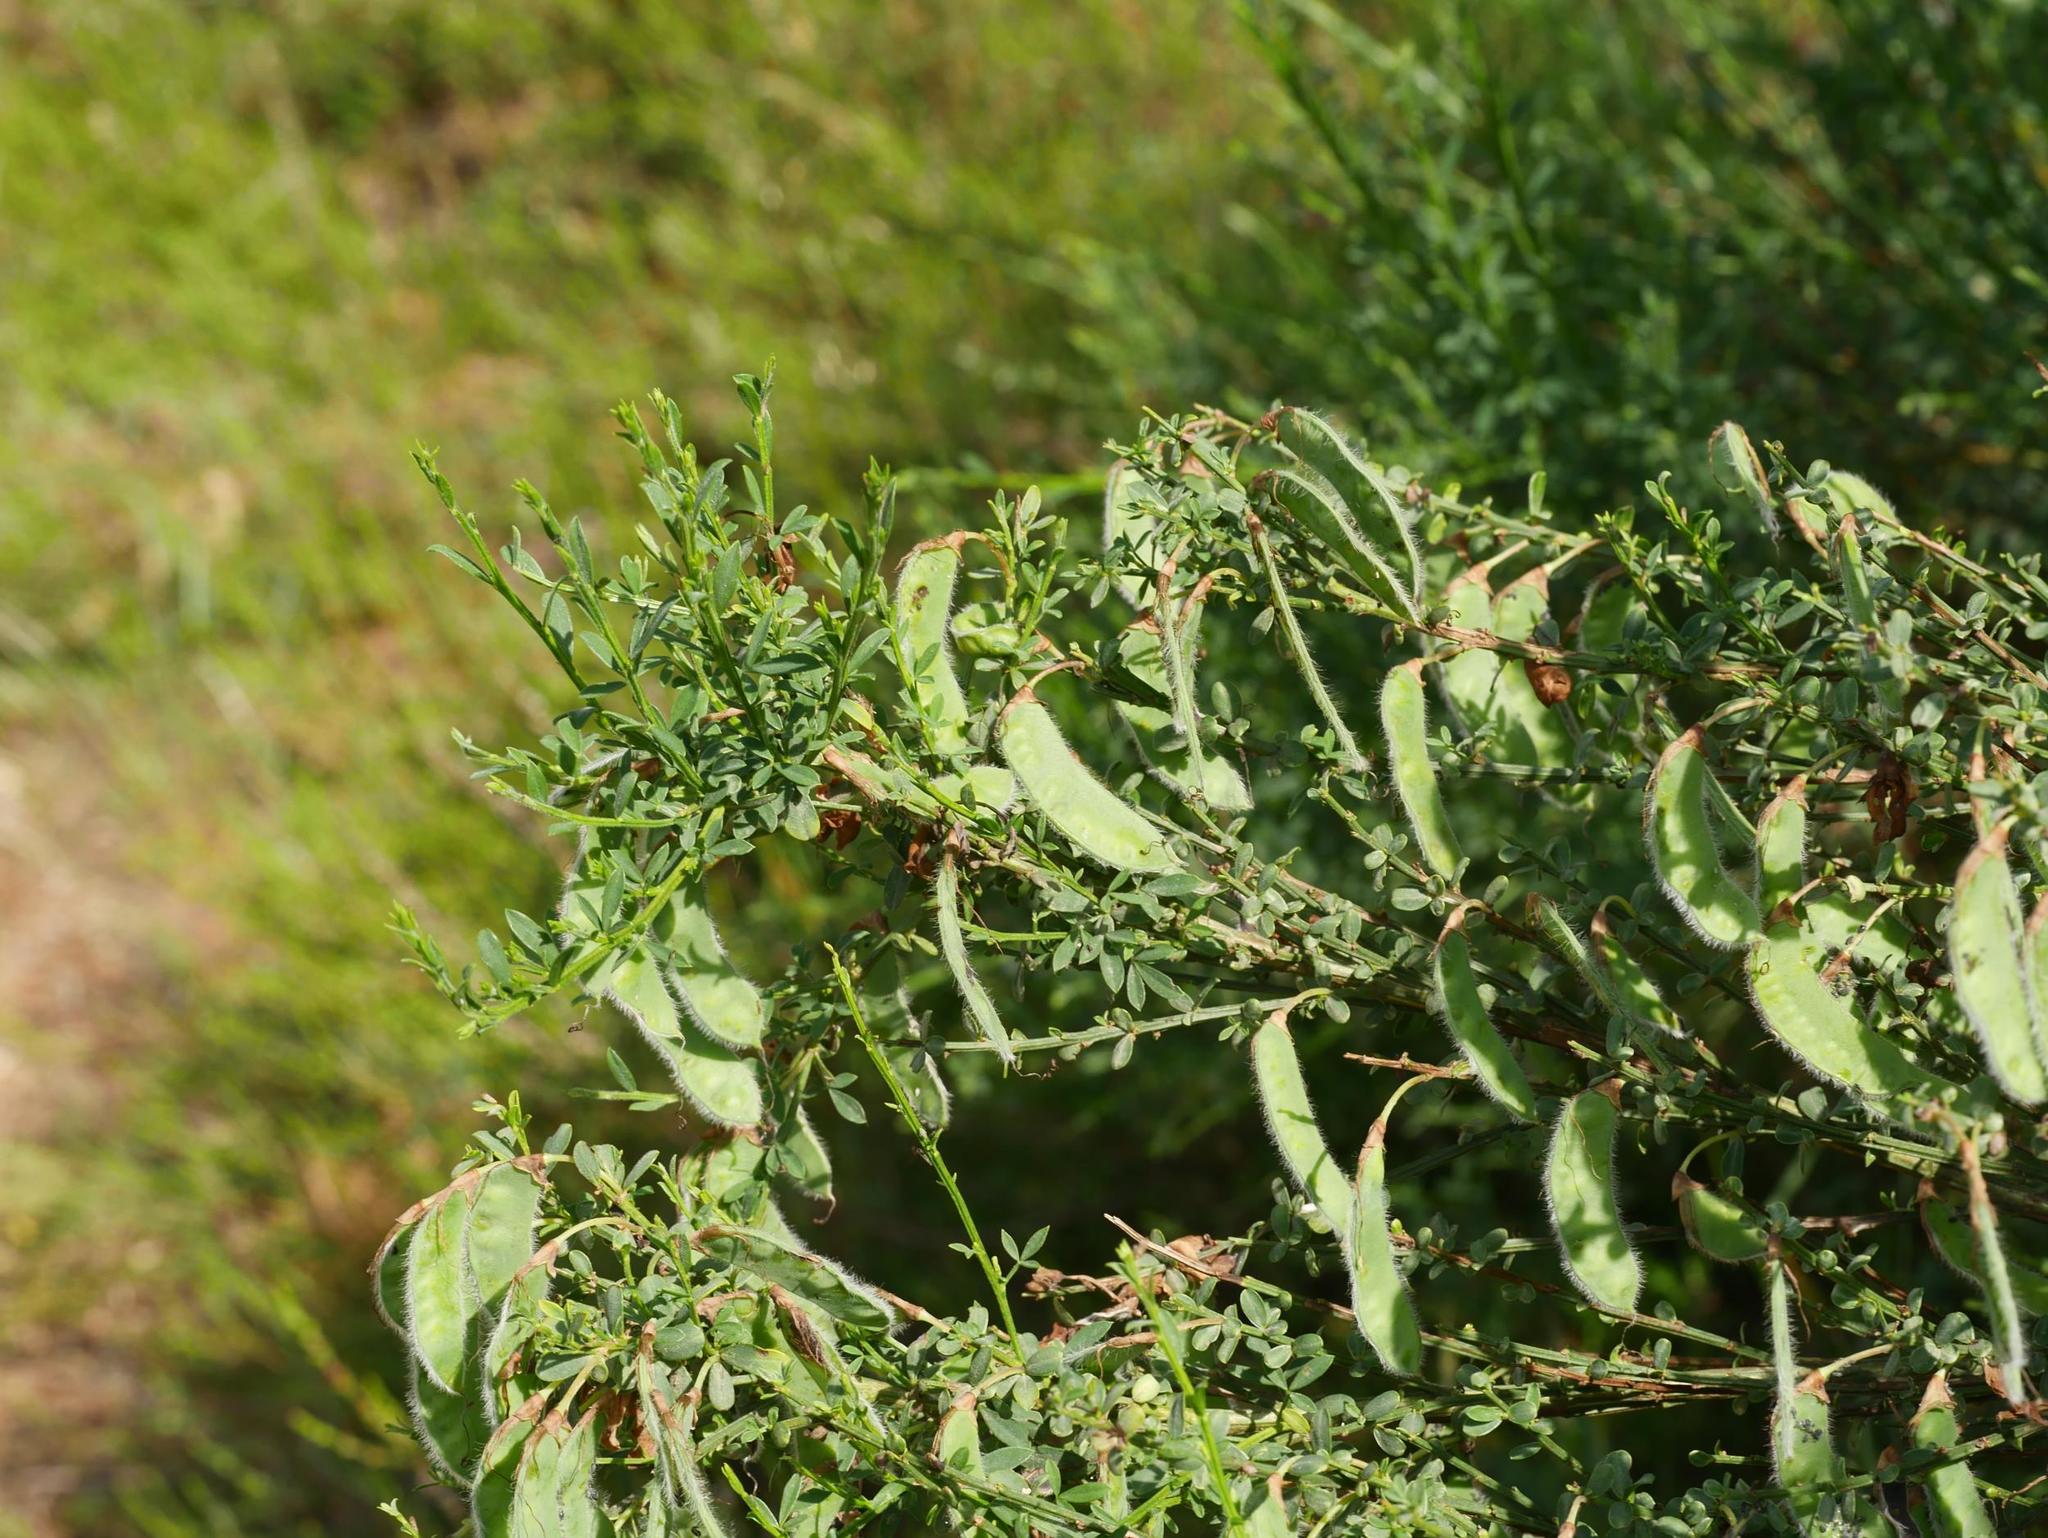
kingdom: Plantae
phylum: Tracheophyta
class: Magnoliopsida
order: Fabales
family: Fabaceae
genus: Cytisus
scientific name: Cytisus scoparius
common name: Scotch broom
